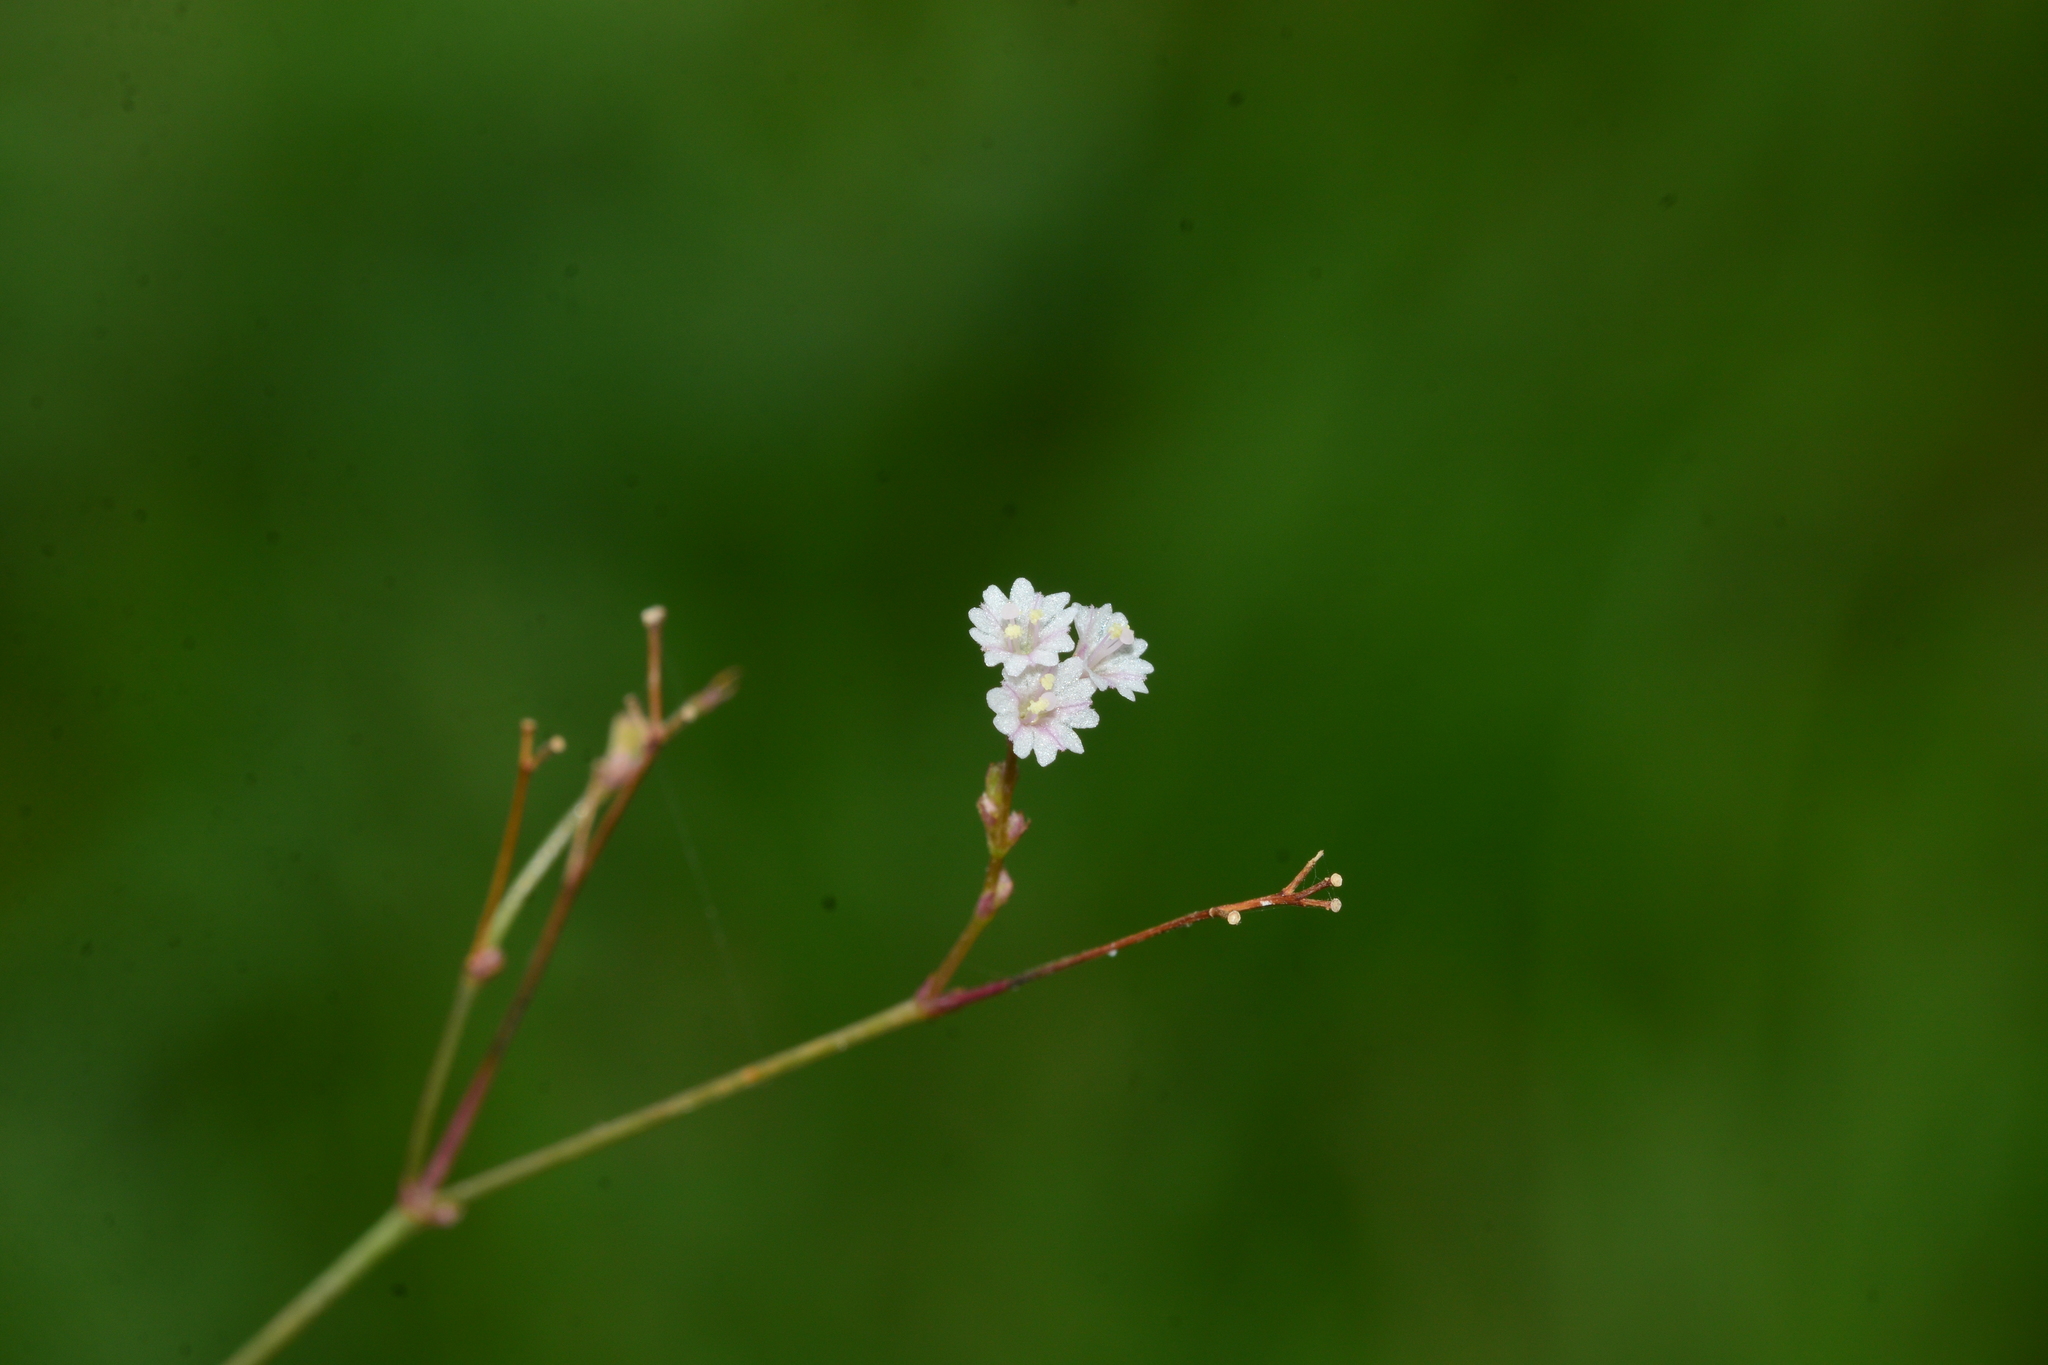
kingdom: Plantae
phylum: Tracheophyta
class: Magnoliopsida
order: Caryophyllales
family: Nyctaginaceae
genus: Boerhavia
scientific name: Boerhavia erecta
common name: Erect spiderling
